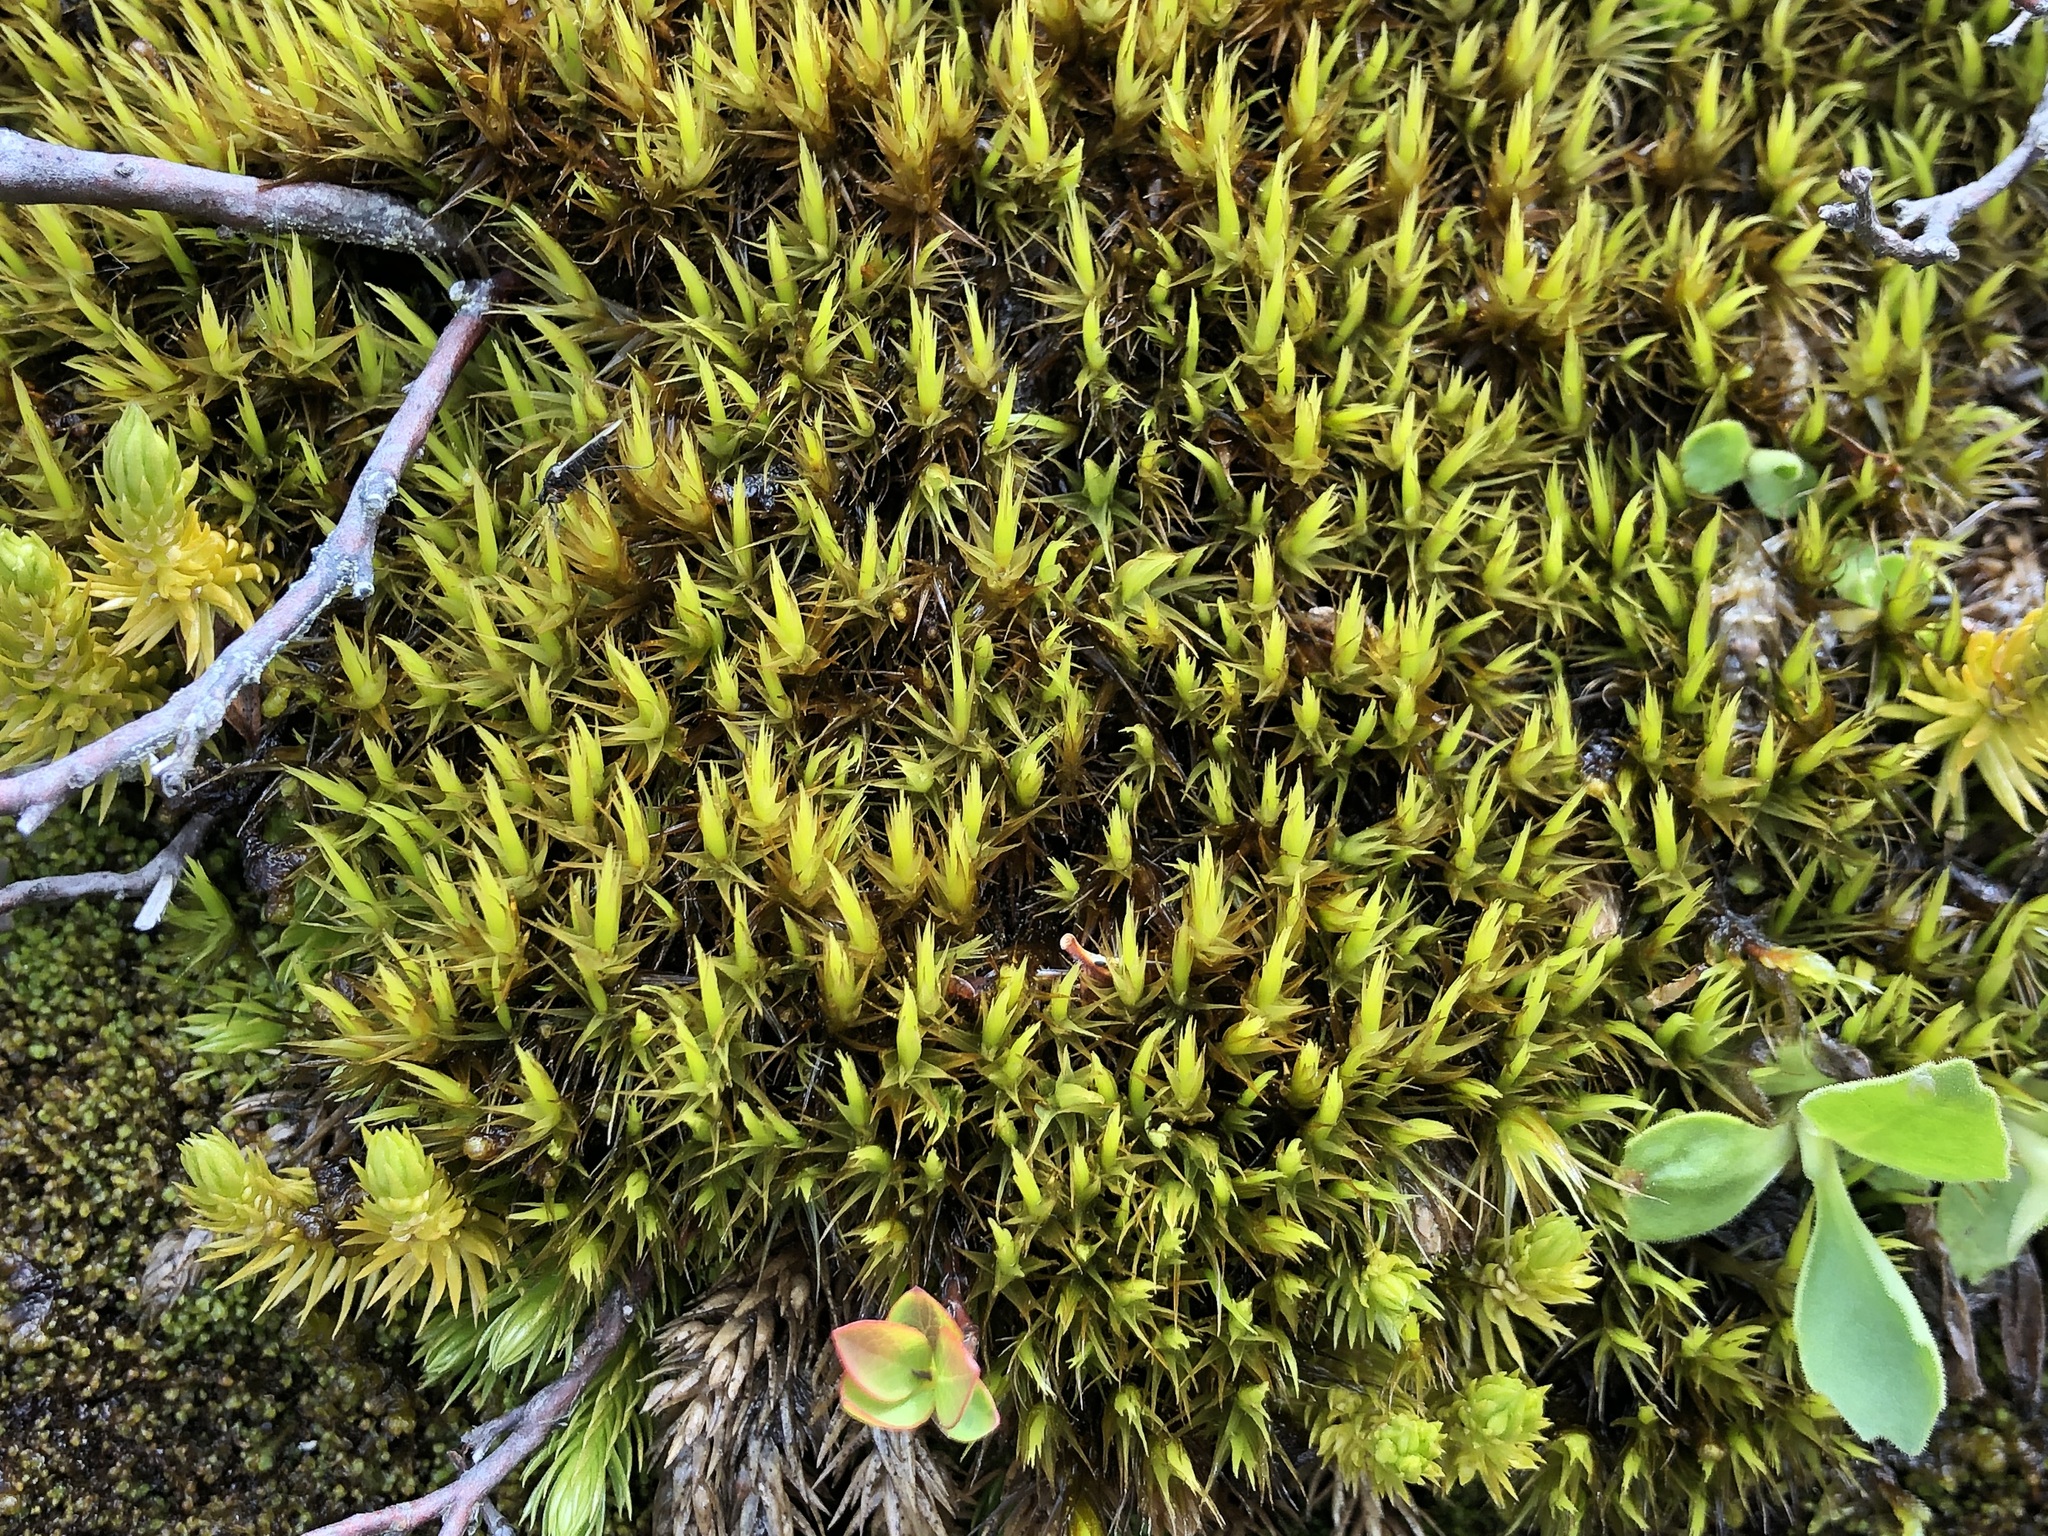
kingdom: Plantae
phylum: Bryophyta
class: Bryopsida
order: Dicranales
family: Dicranaceae
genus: Dicranum
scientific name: Dicranum spadiceum
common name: Confusing broom moss
